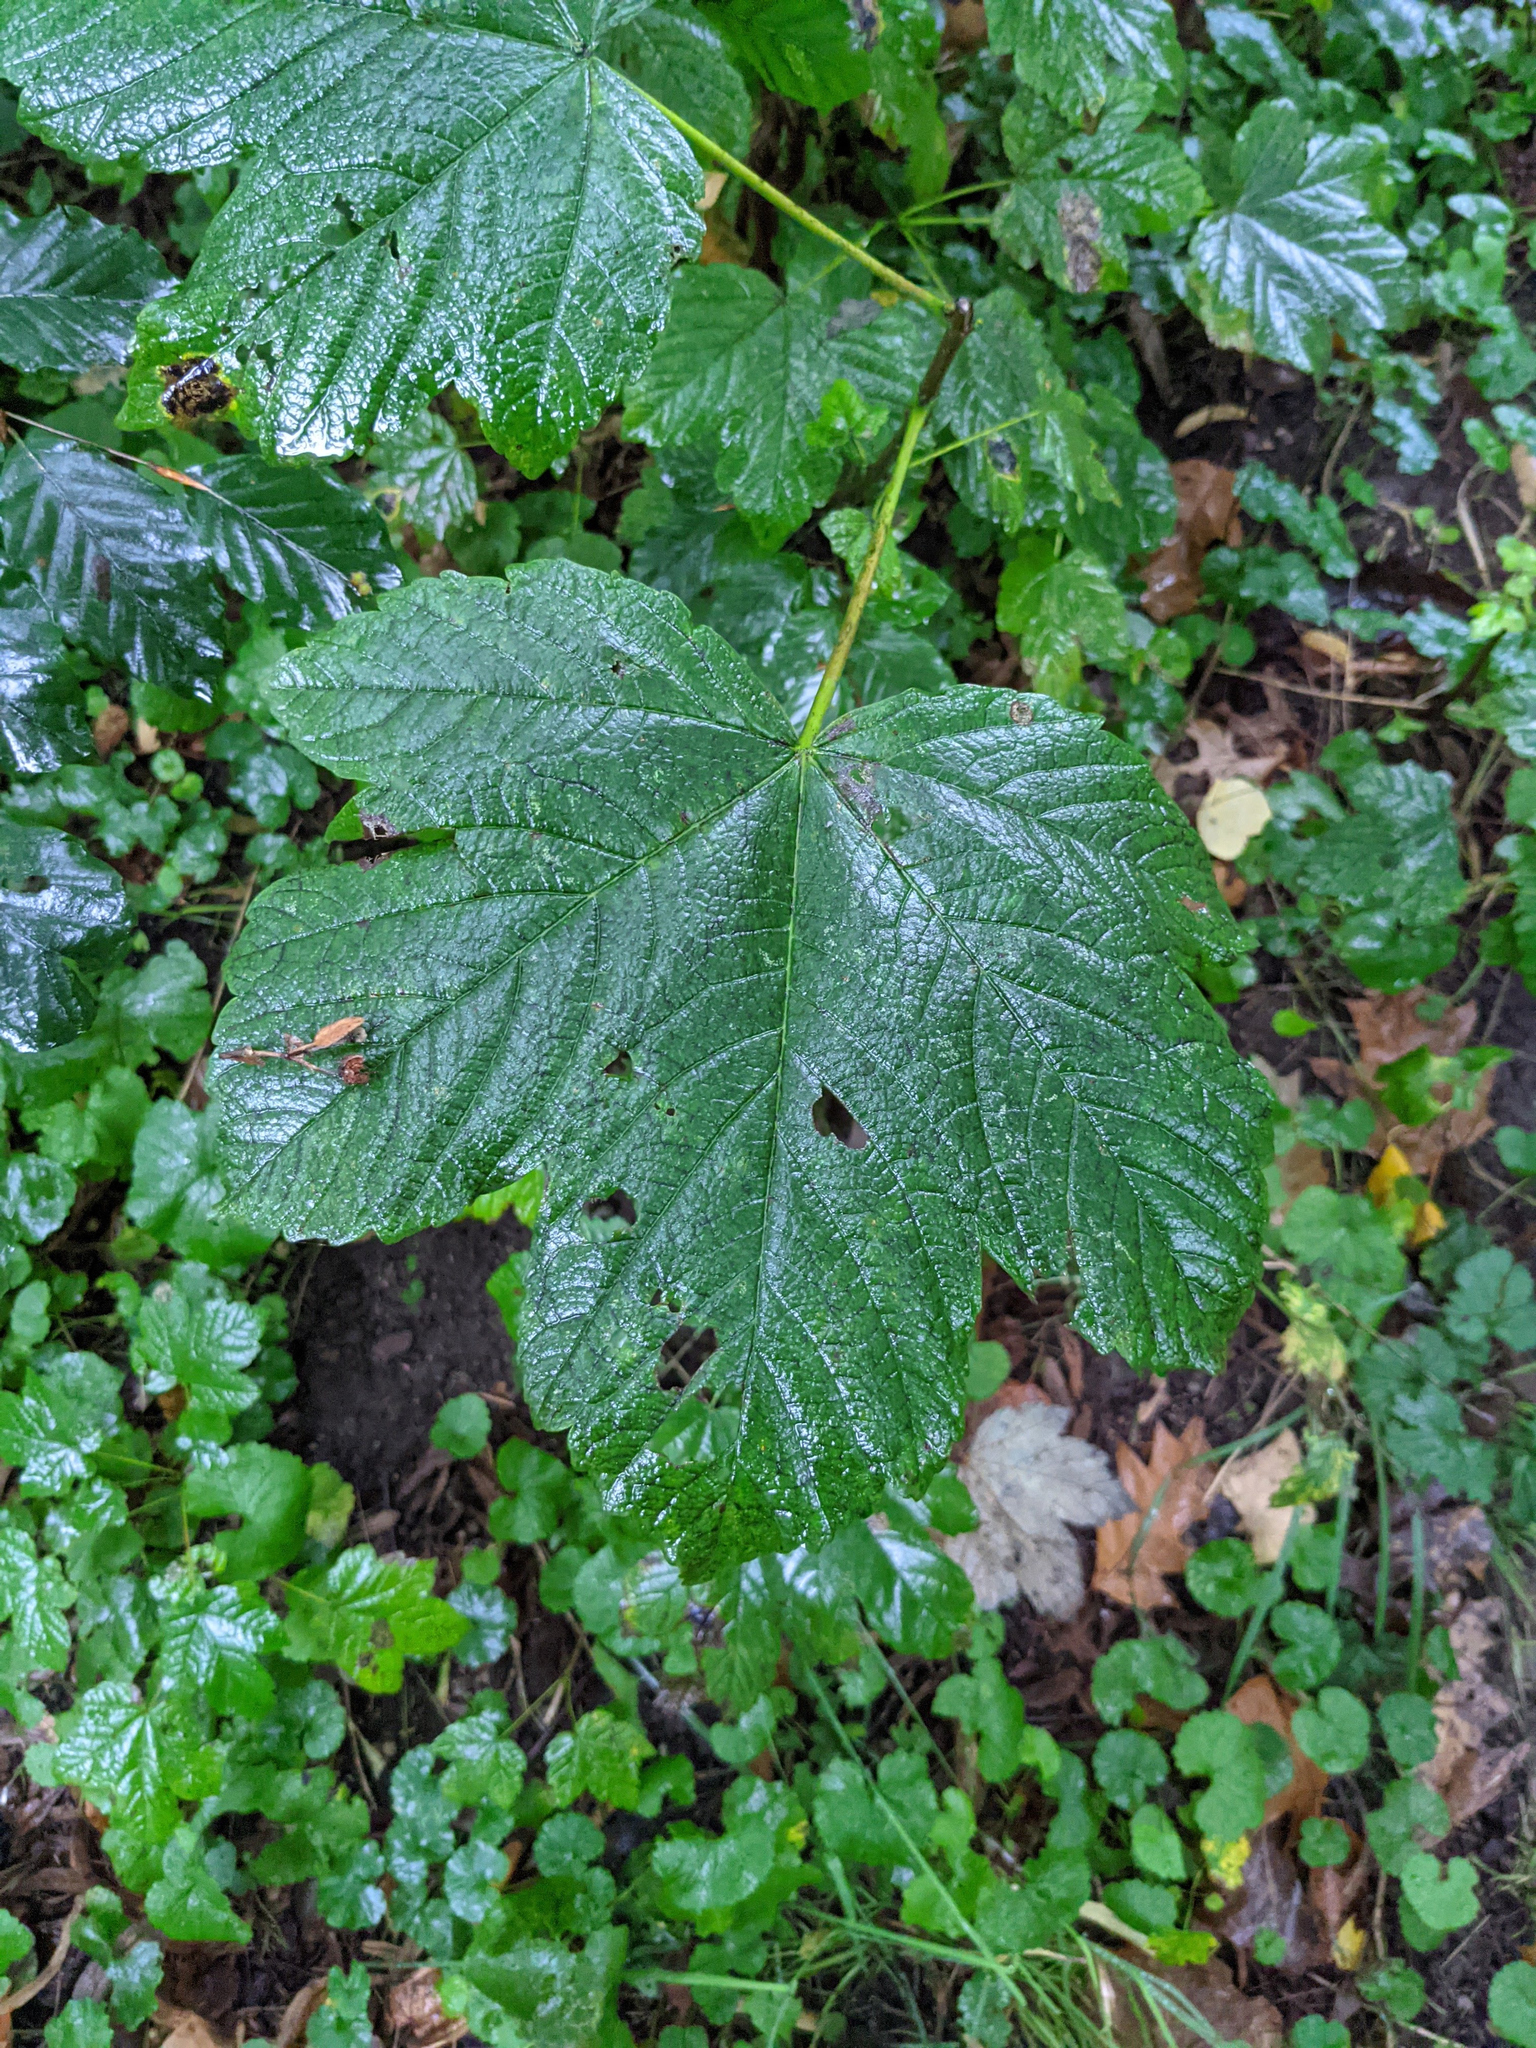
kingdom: Plantae
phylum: Tracheophyta
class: Magnoliopsida
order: Sapindales
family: Sapindaceae
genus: Acer
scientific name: Acer pseudoplatanus
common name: Sycamore
